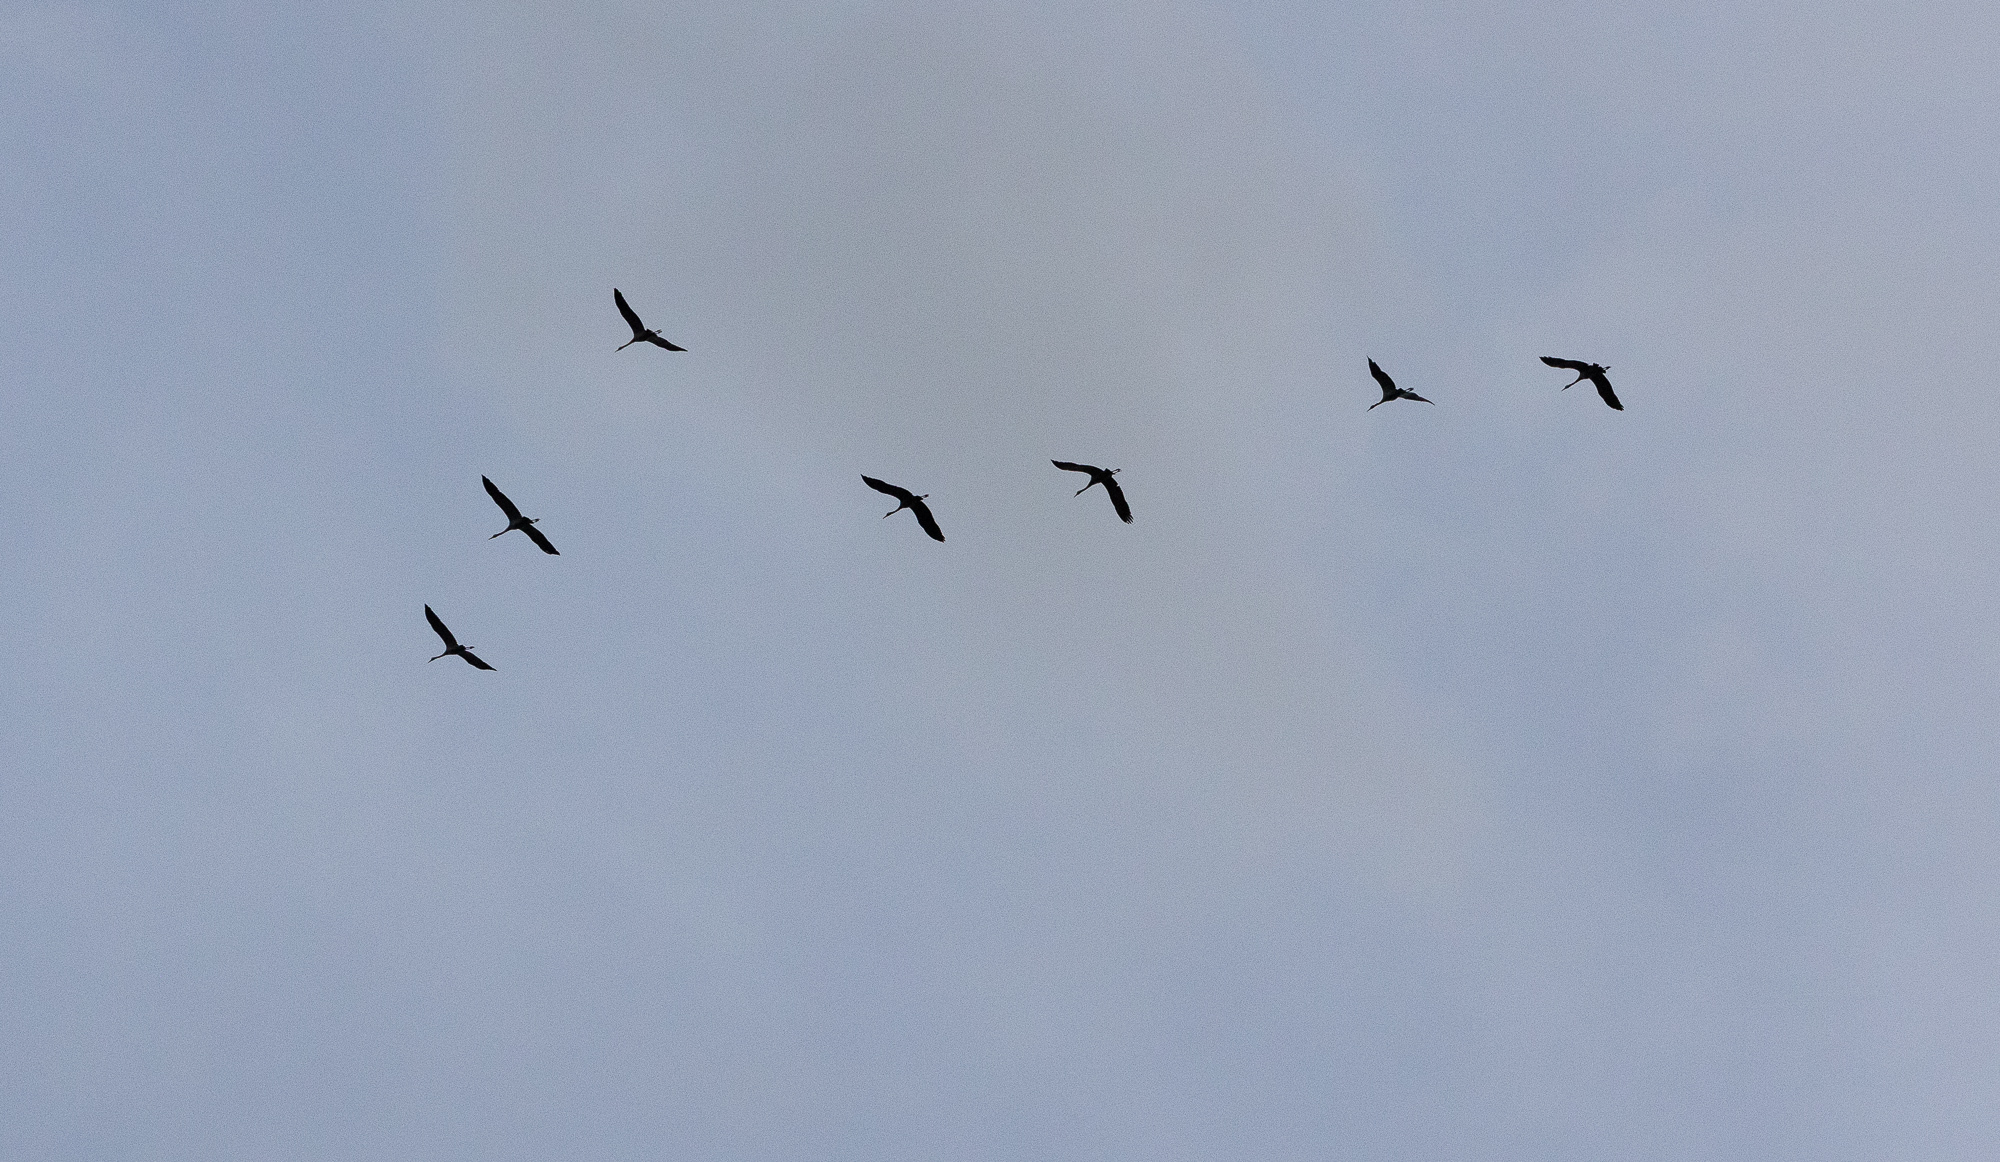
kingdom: Animalia
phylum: Chordata
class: Aves
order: Gruiformes
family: Gruidae
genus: Grus
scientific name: Grus grus
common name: Common crane
